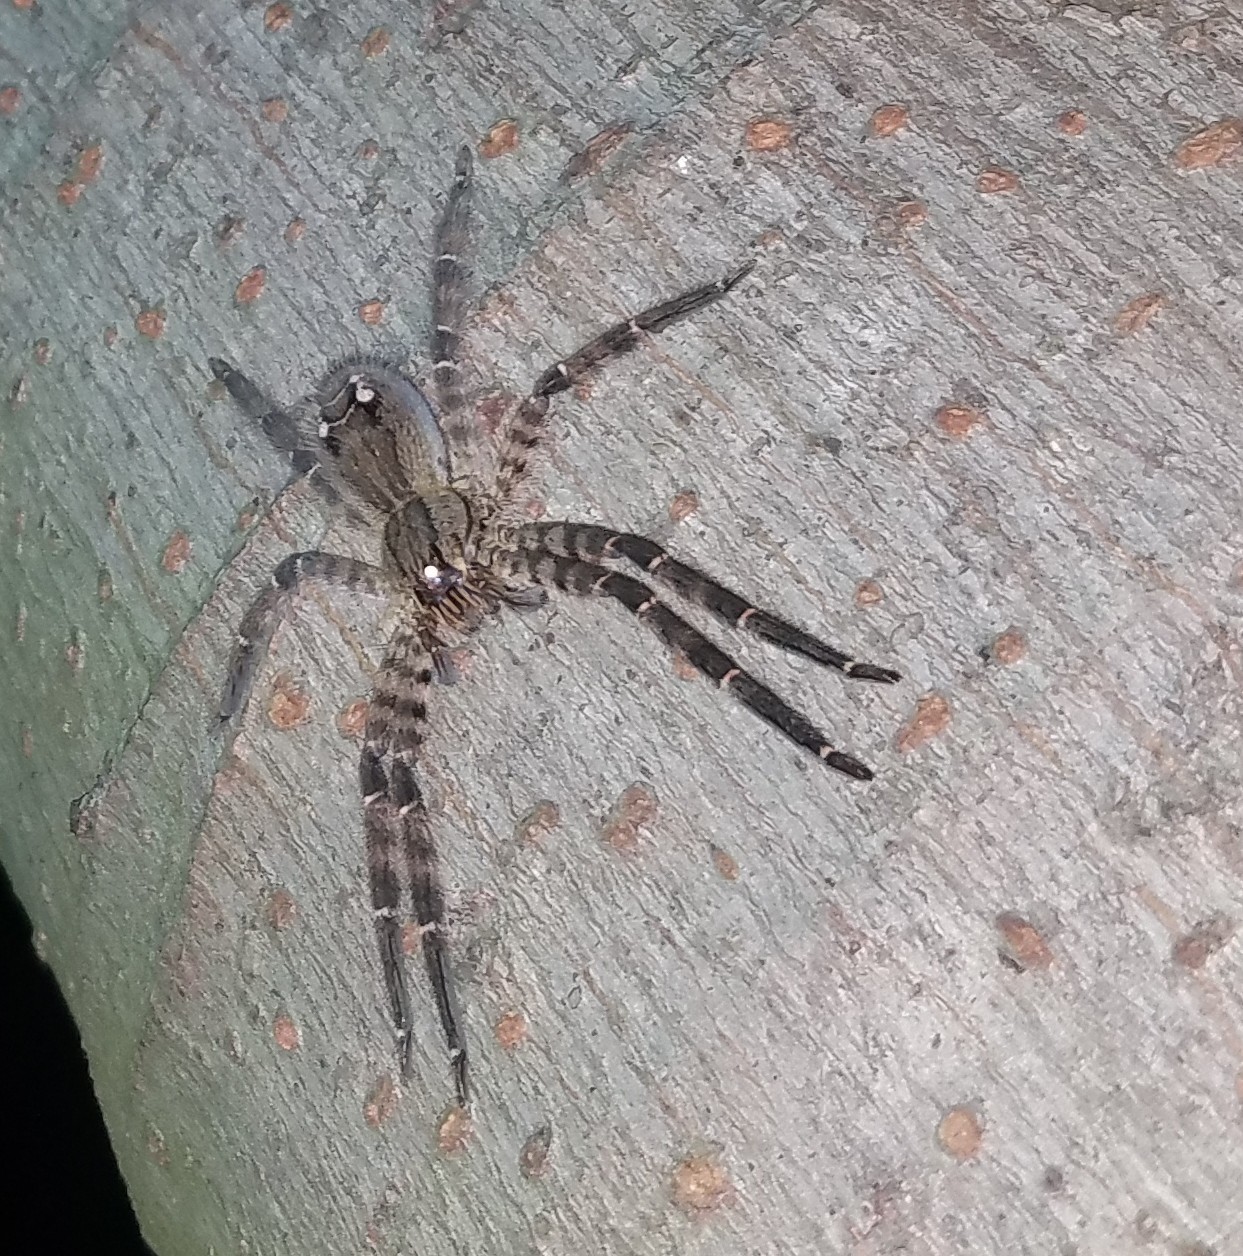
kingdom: Animalia
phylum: Arthropoda
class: Arachnida
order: Araneae
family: Trechaleidae
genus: Cupiennius
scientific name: Cupiennius salei
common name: Wandering spiders
